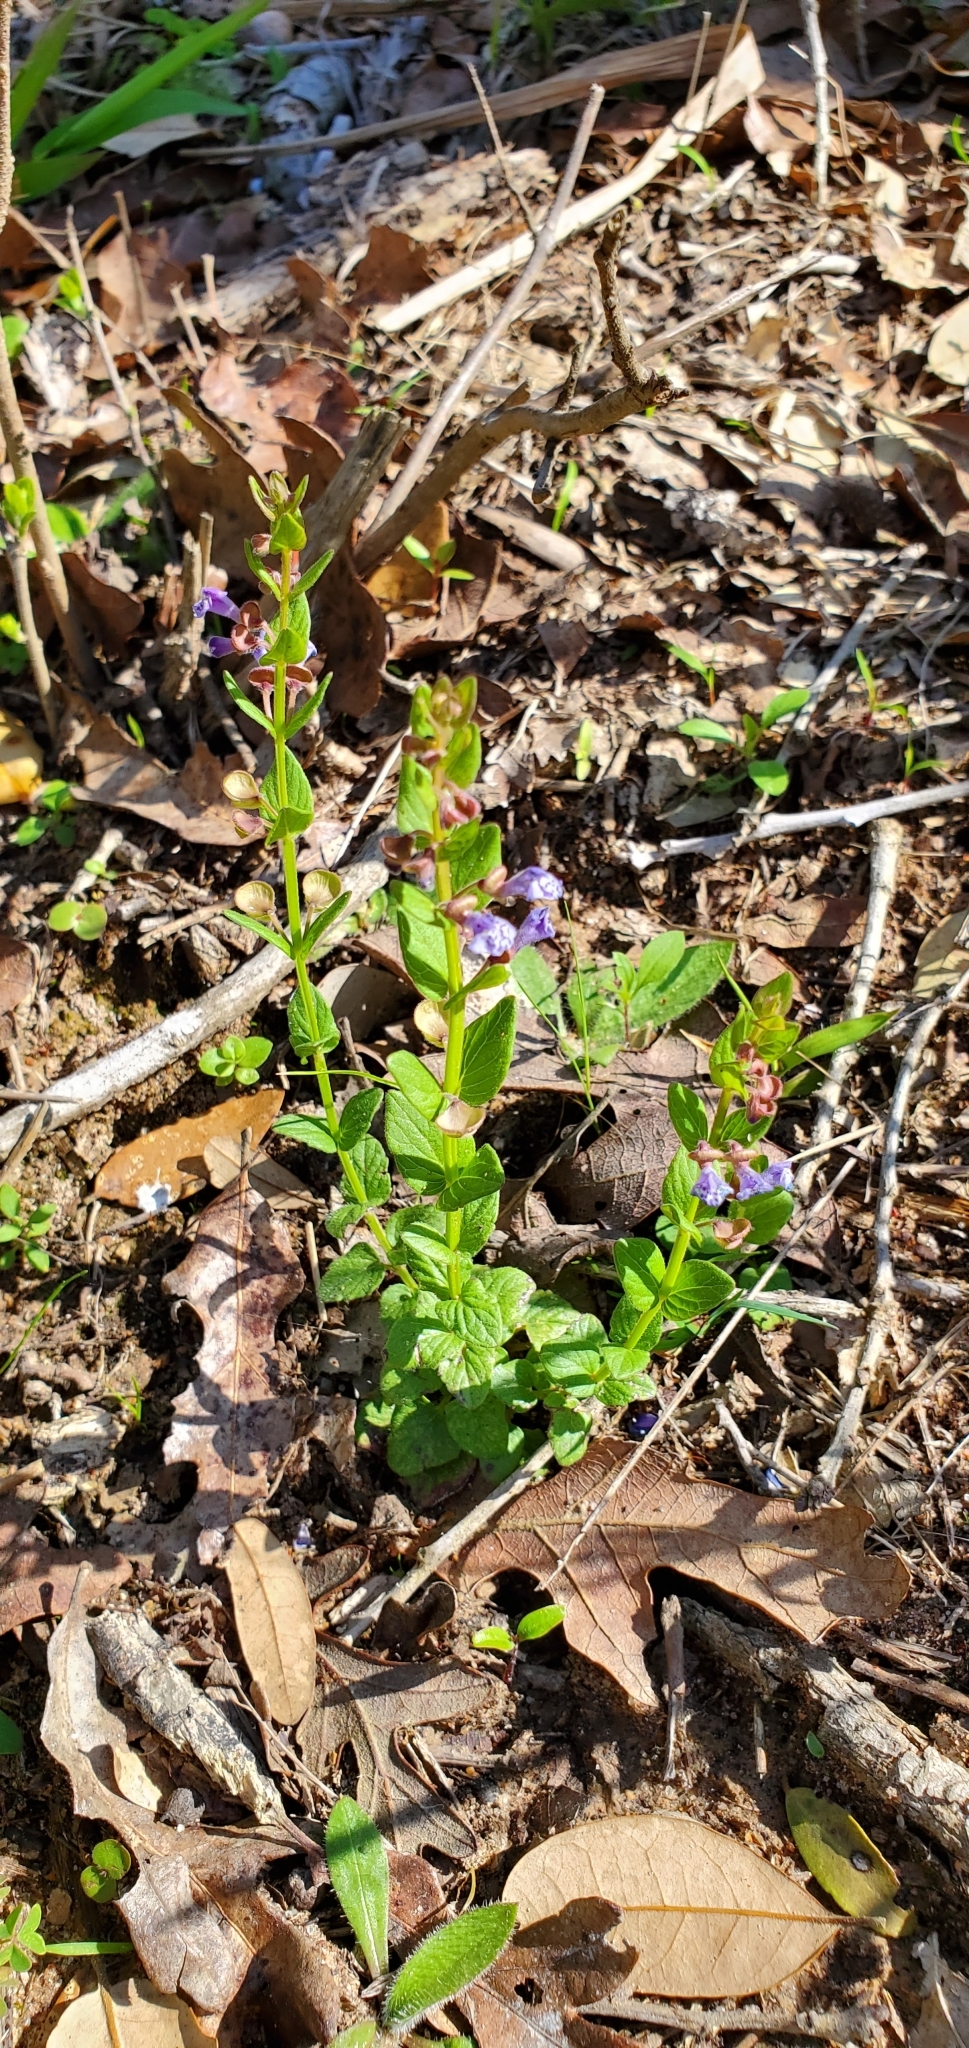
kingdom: Plantae
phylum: Tracheophyta
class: Magnoliopsida
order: Lamiales
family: Lamiaceae
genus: Scutellaria
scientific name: Scutellaria parvula
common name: Little scullcap
